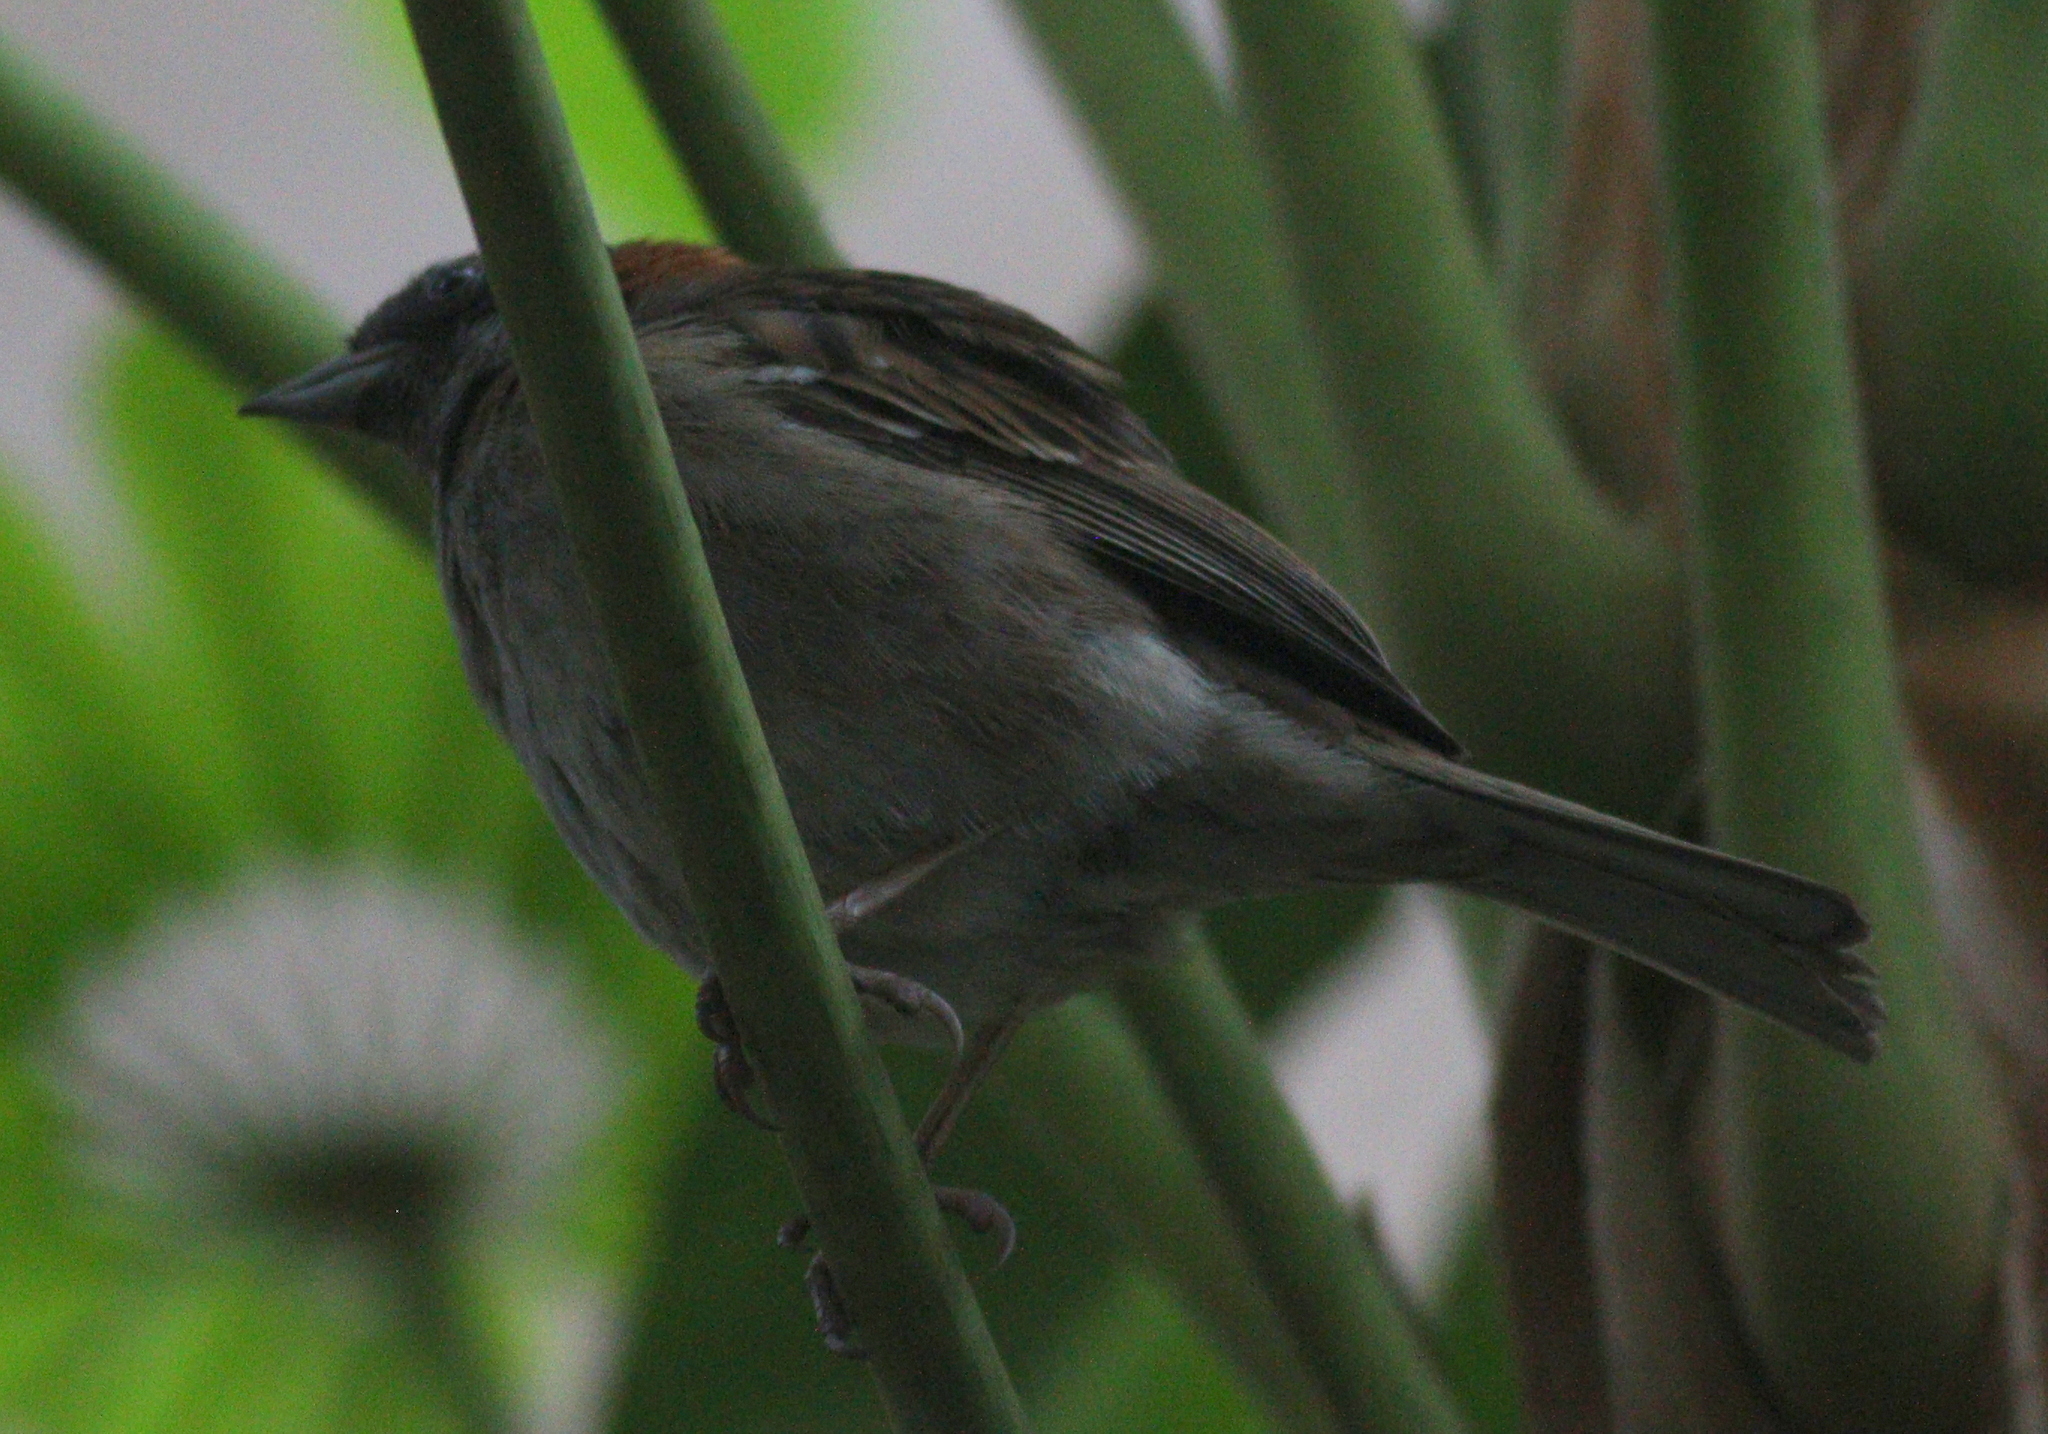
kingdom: Animalia
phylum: Chordata
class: Aves
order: Passeriformes
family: Passerellidae
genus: Zonotrichia
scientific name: Zonotrichia capensis
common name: Rufous-collared sparrow
